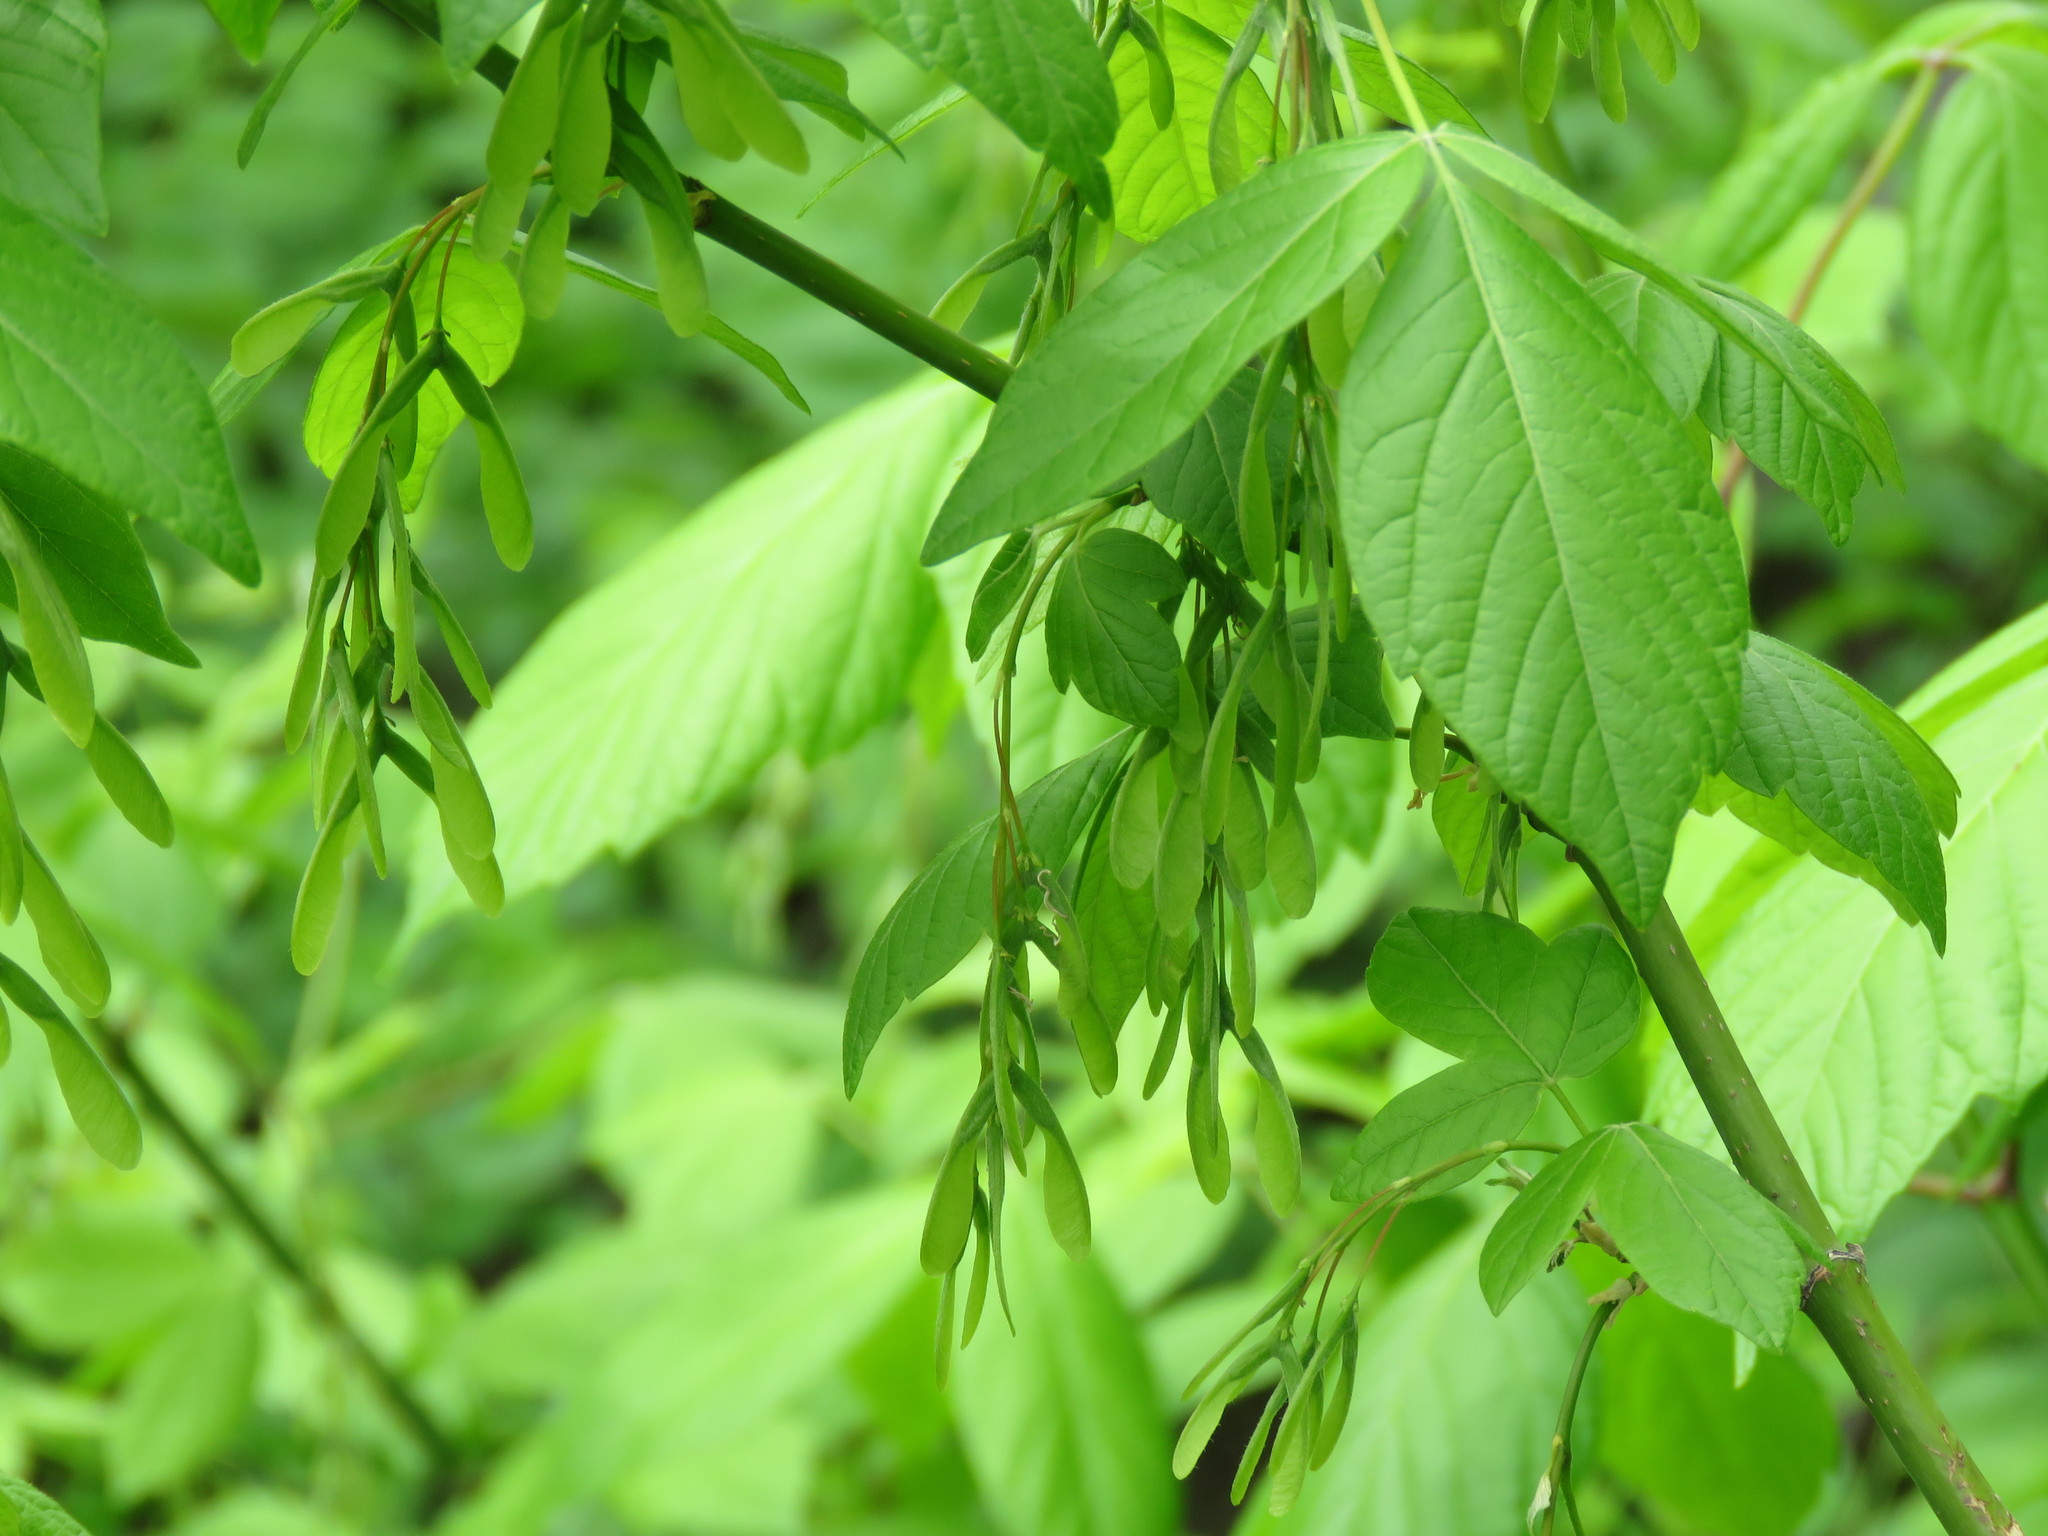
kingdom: Plantae
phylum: Tracheophyta
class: Magnoliopsida
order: Sapindales
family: Sapindaceae
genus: Acer
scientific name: Acer negundo
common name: Ashleaf maple
